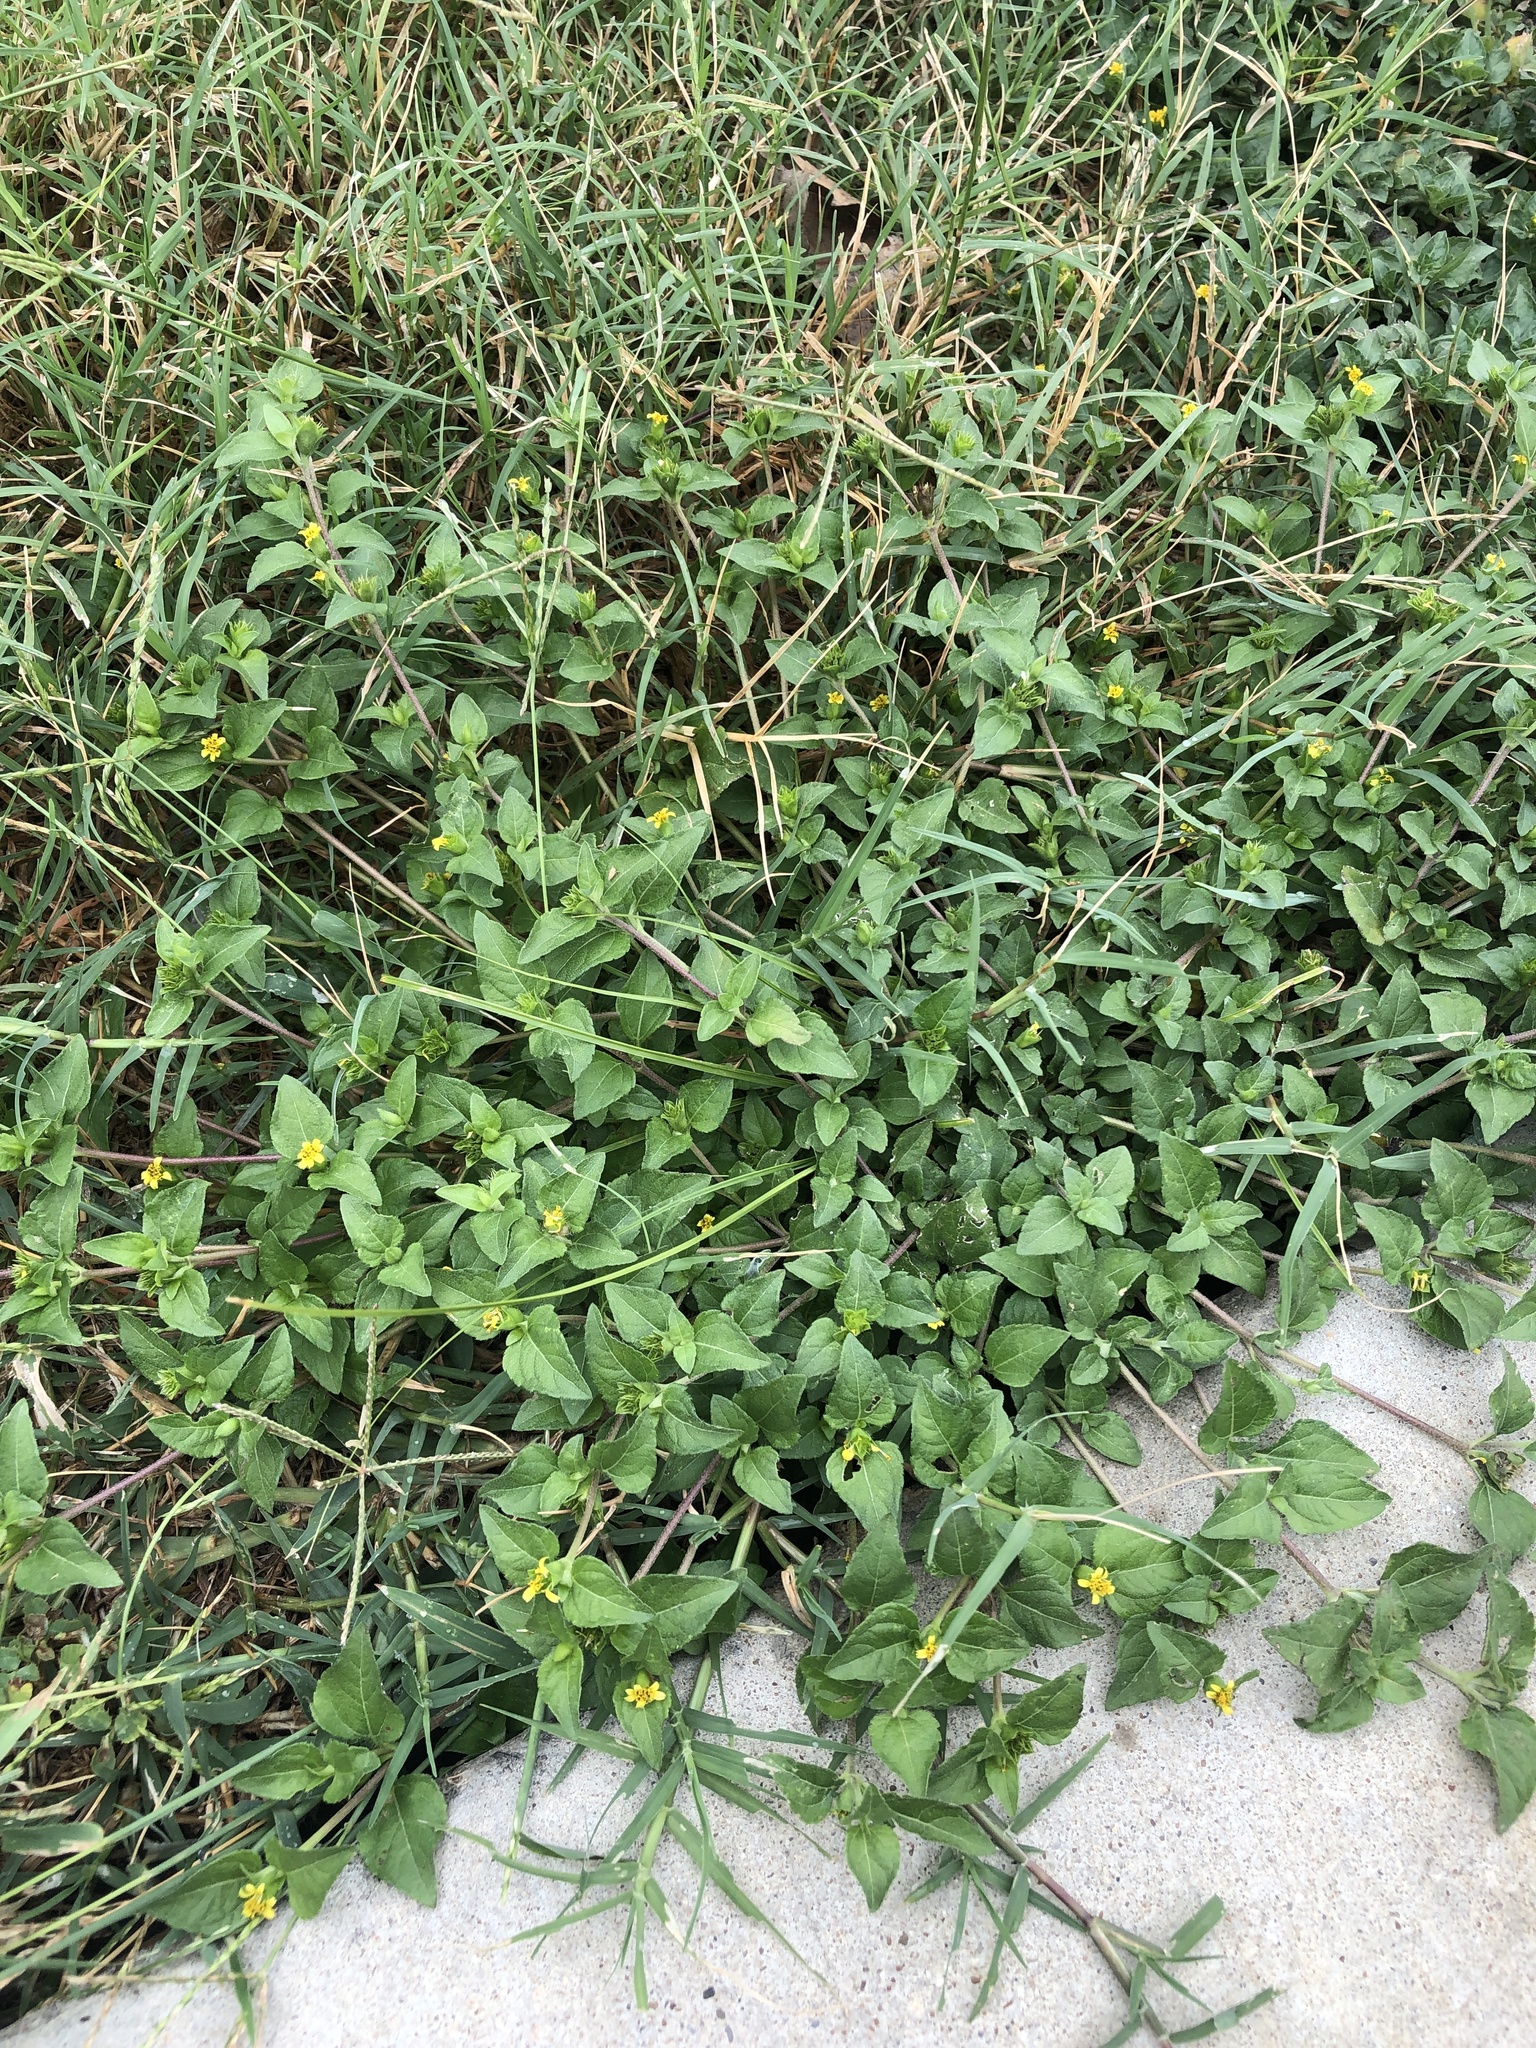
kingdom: Plantae
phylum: Tracheophyta
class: Magnoliopsida
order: Asterales
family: Asteraceae
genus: Calyptocarpus
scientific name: Calyptocarpus vialis
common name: Straggler daisy
